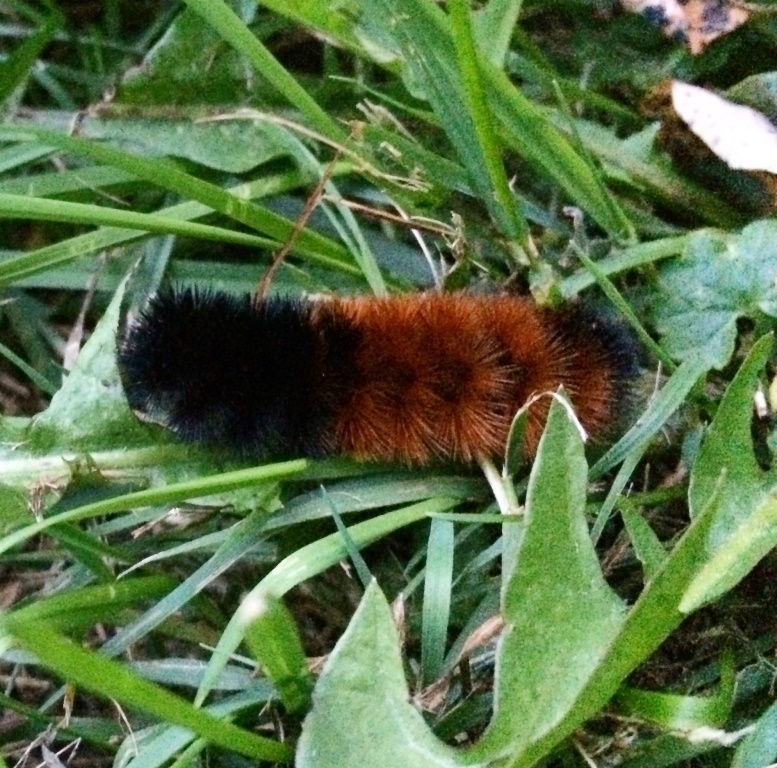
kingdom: Animalia
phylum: Arthropoda
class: Insecta
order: Lepidoptera
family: Erebidae
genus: Pyrrharctia
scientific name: Pyrrharctia isabella
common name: Isabella tiger moth
